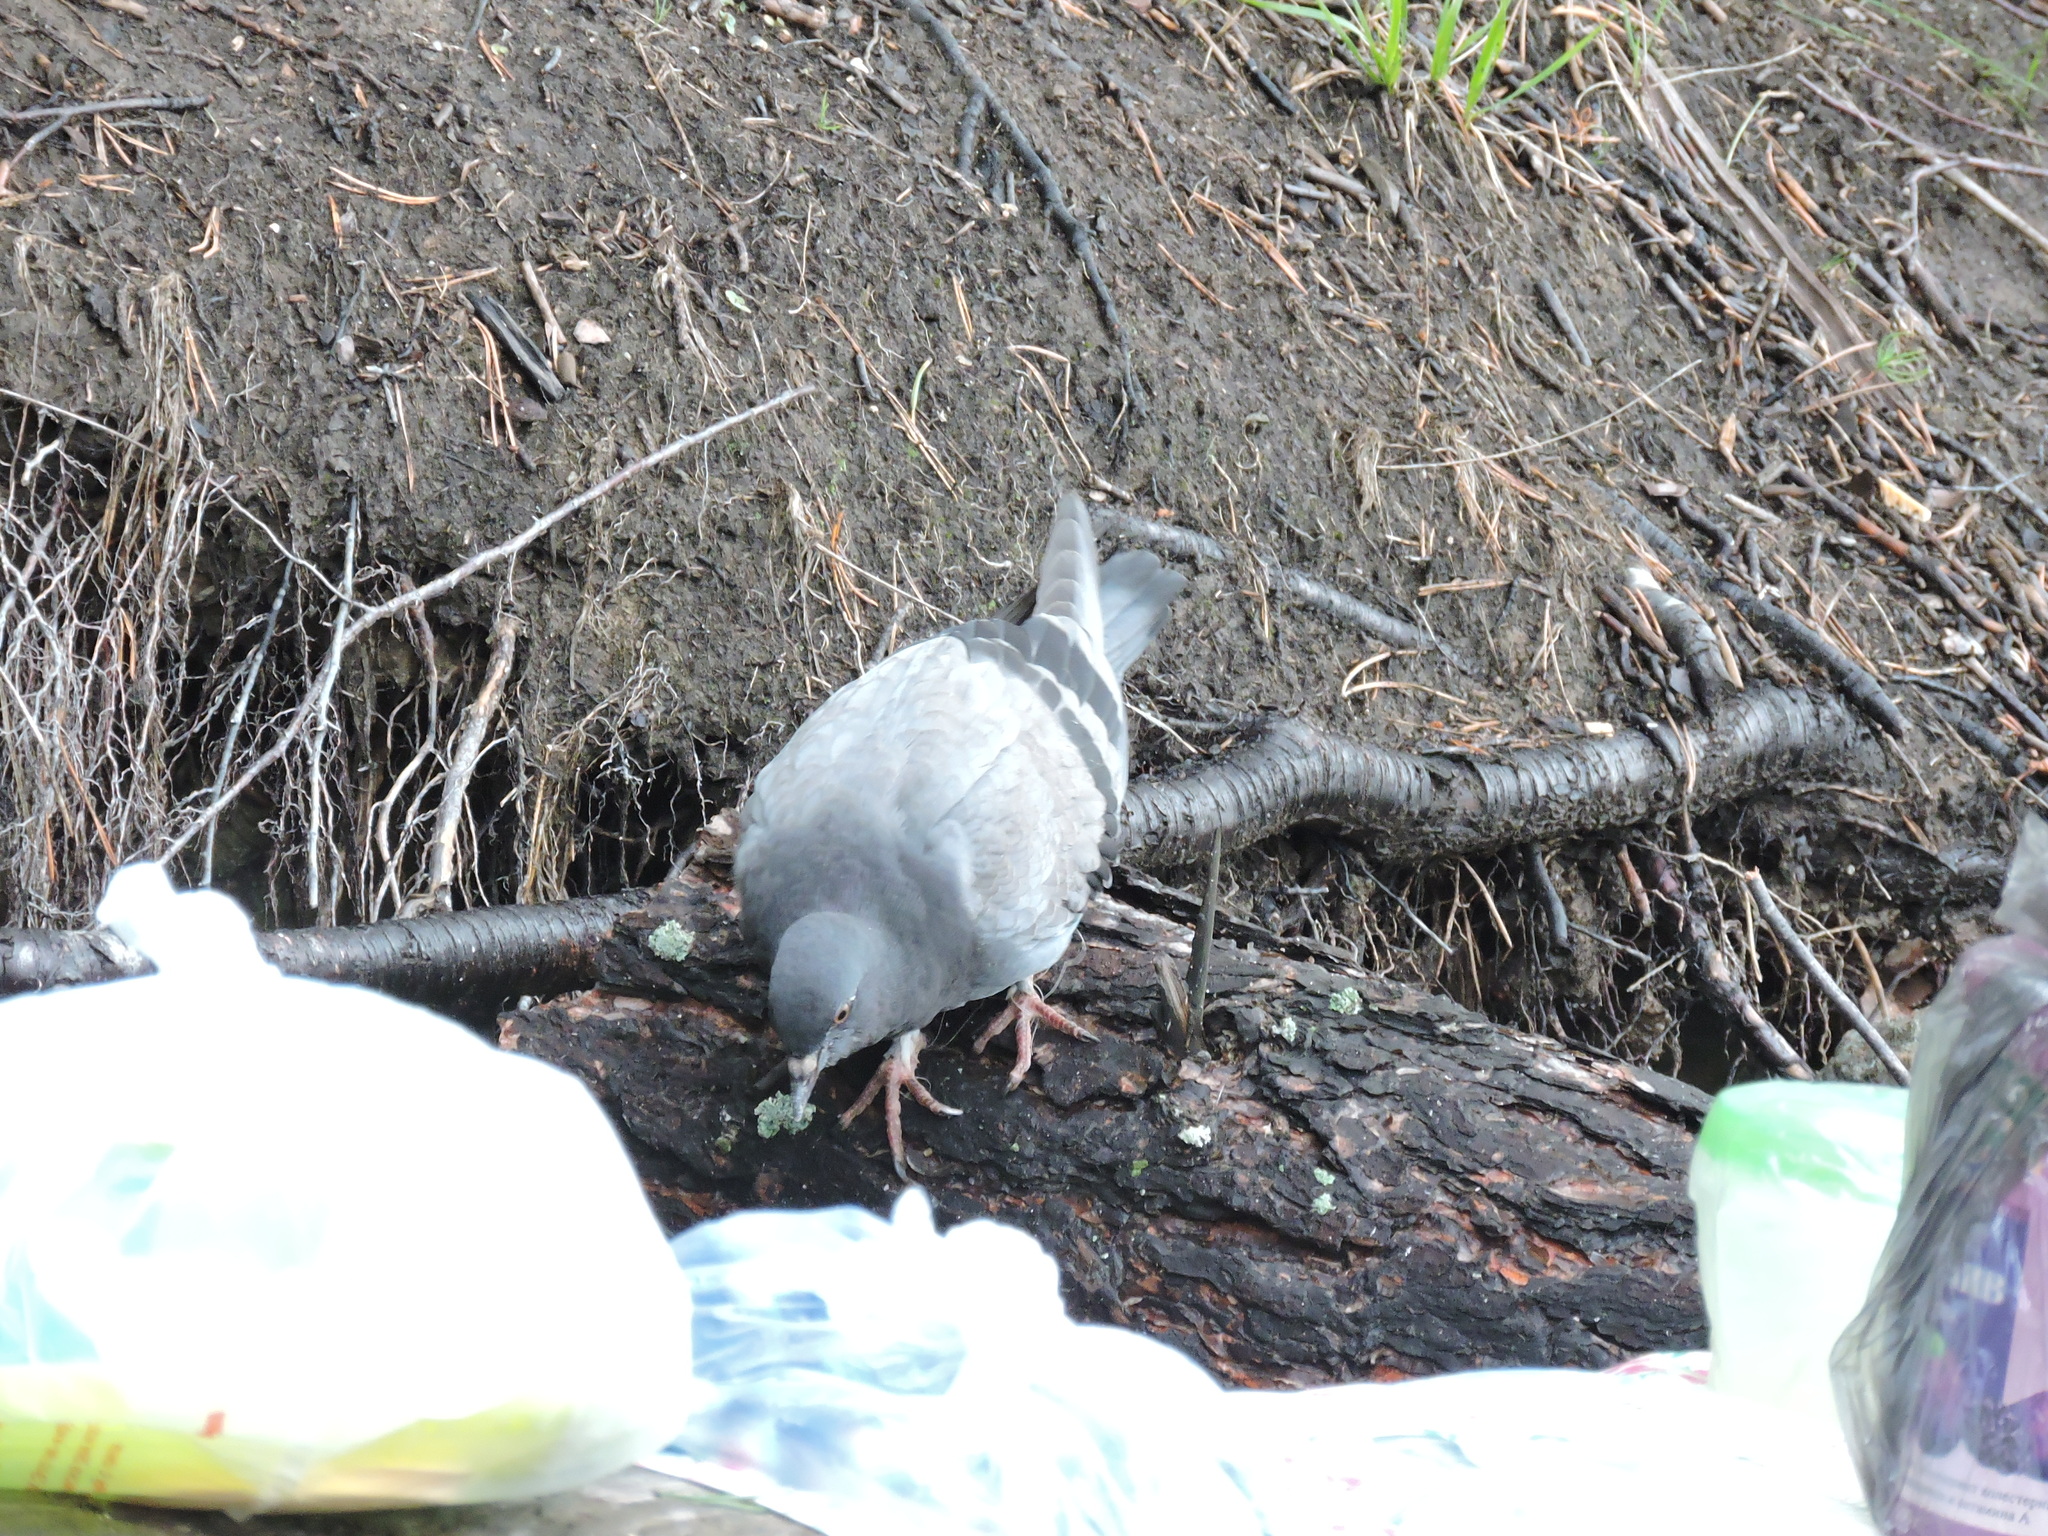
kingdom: Animalia
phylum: Chordata
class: Aves
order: Columbiformes
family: Columbidae
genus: Columba
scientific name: Columba livia
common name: Rock pigeon
